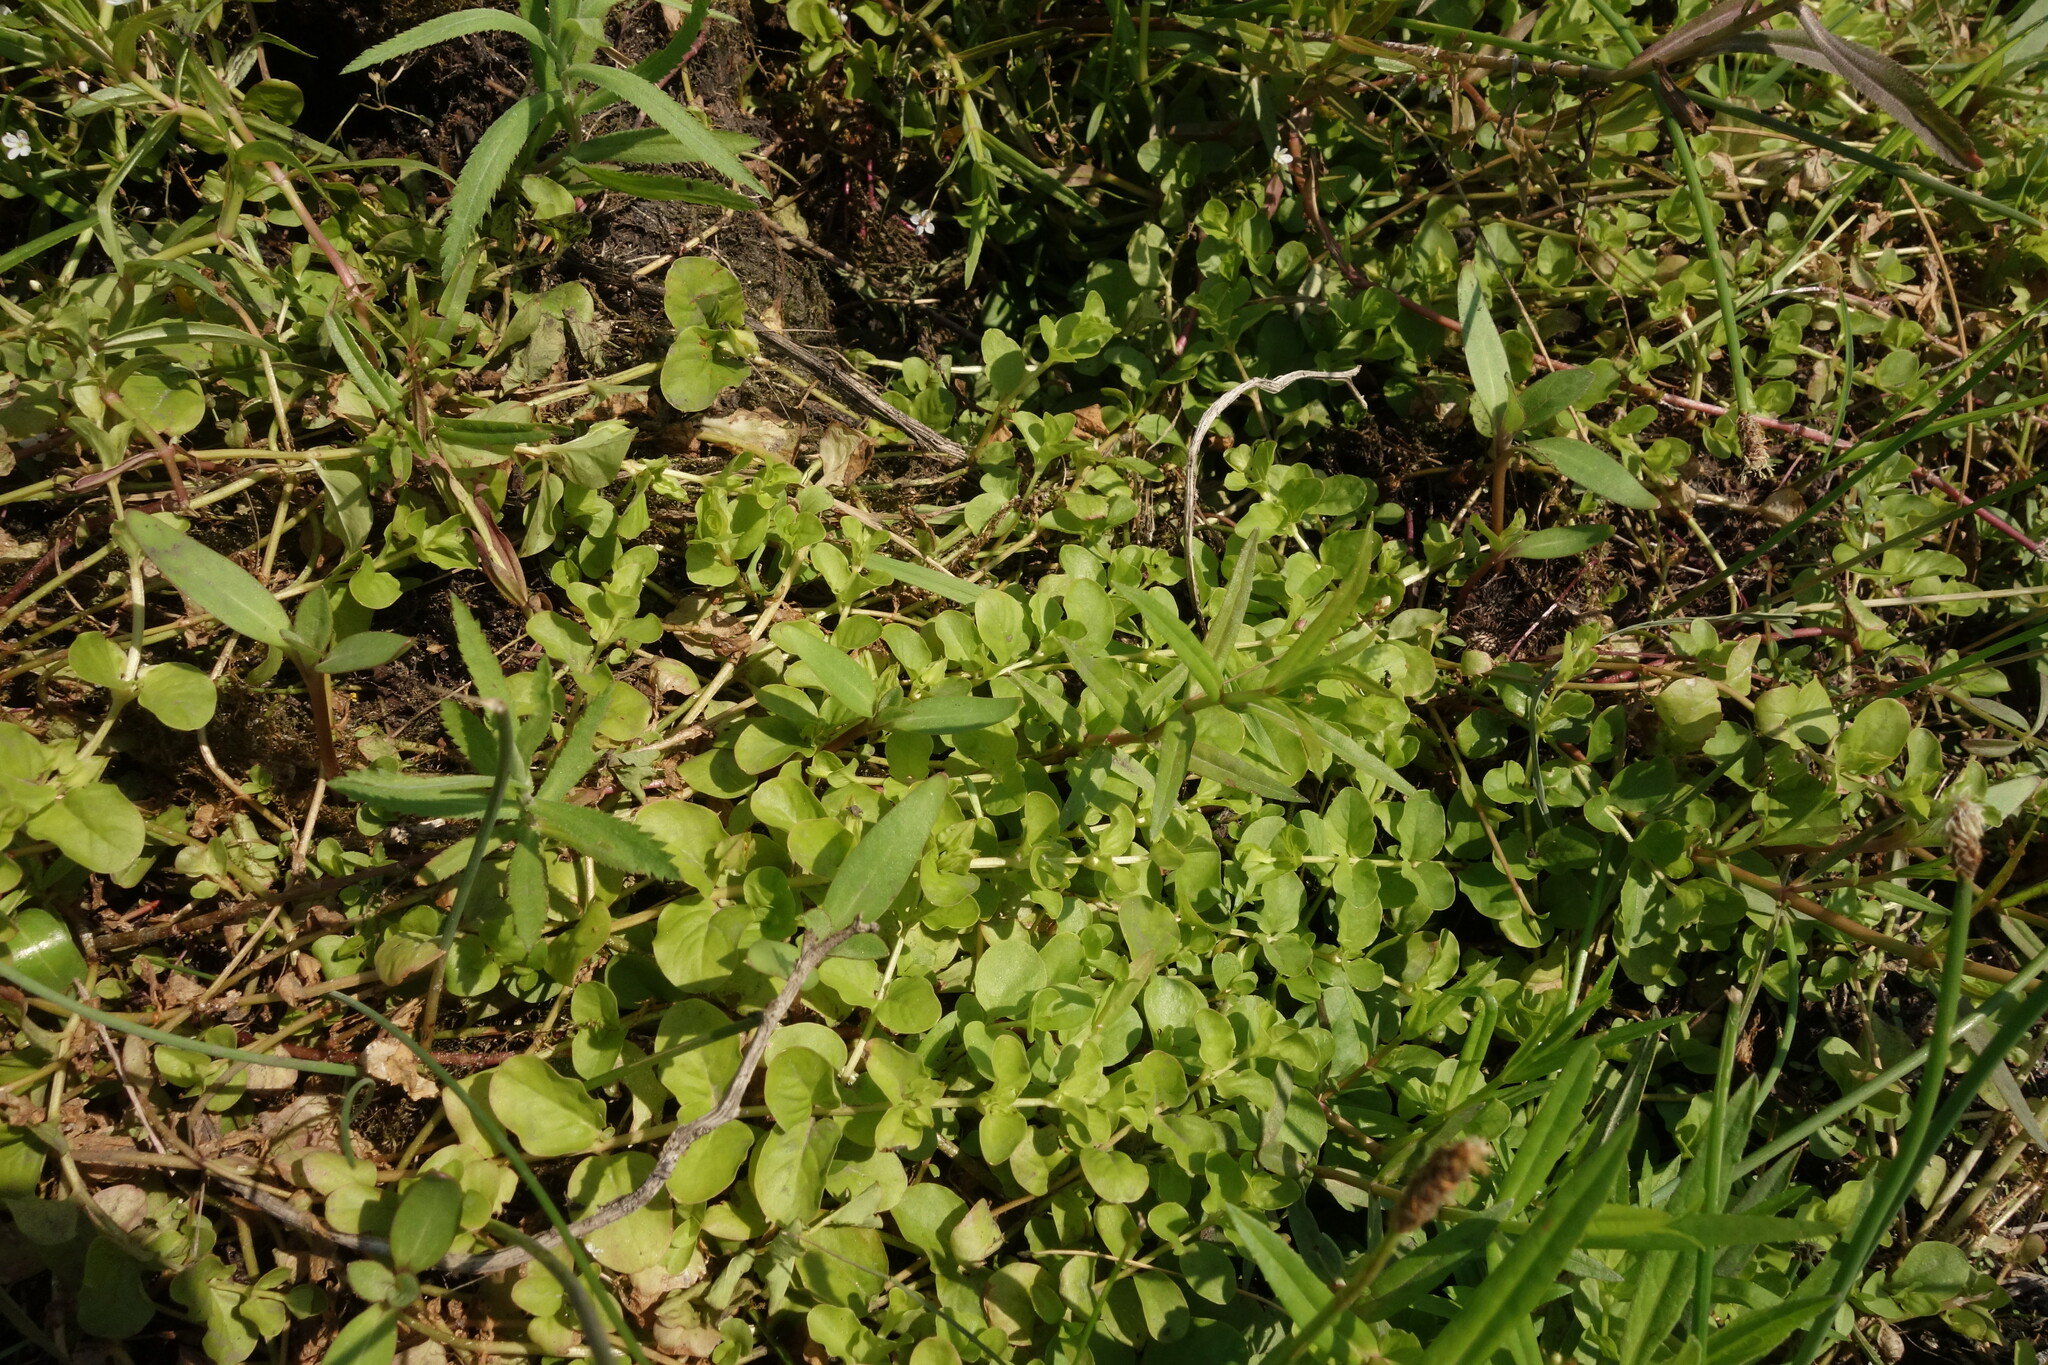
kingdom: Plantae
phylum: Tracheophyta
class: Magnoliopsida
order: Ericales
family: Primulaceae
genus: Lysimachia
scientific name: Lysimachia nummularia
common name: Moneywort
